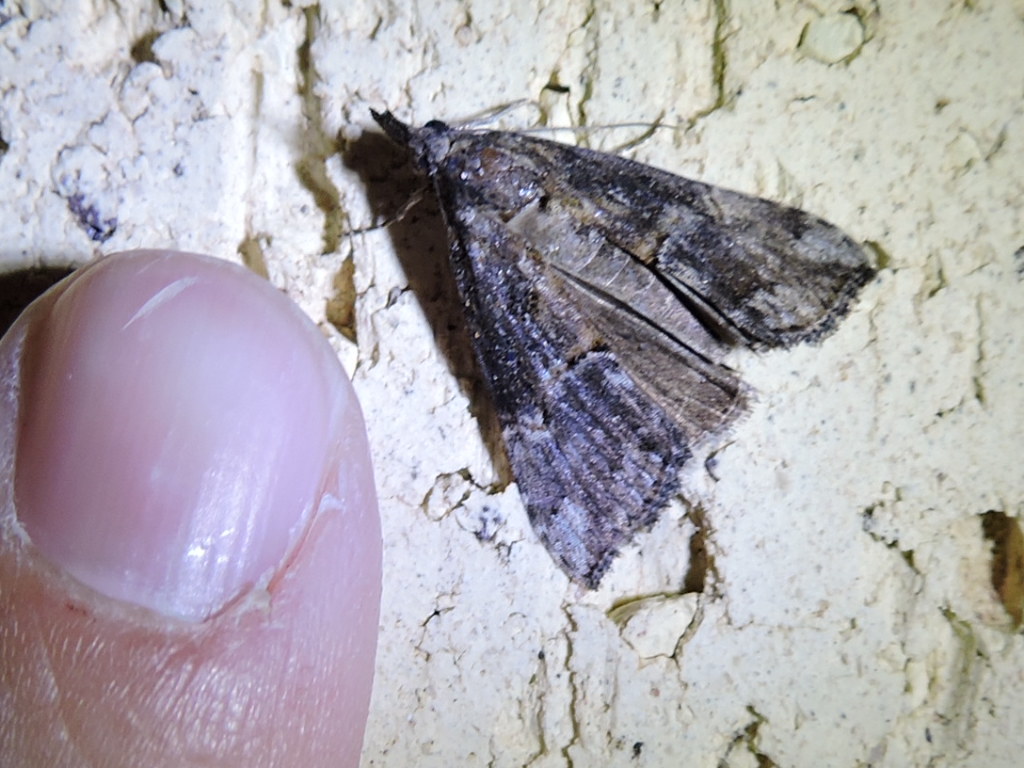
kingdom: Animalia
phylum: Arthropoda
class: Insecta
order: Lepidoptera
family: Erebidae
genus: Hypena
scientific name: Hypena scabra
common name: Green cloverworm
